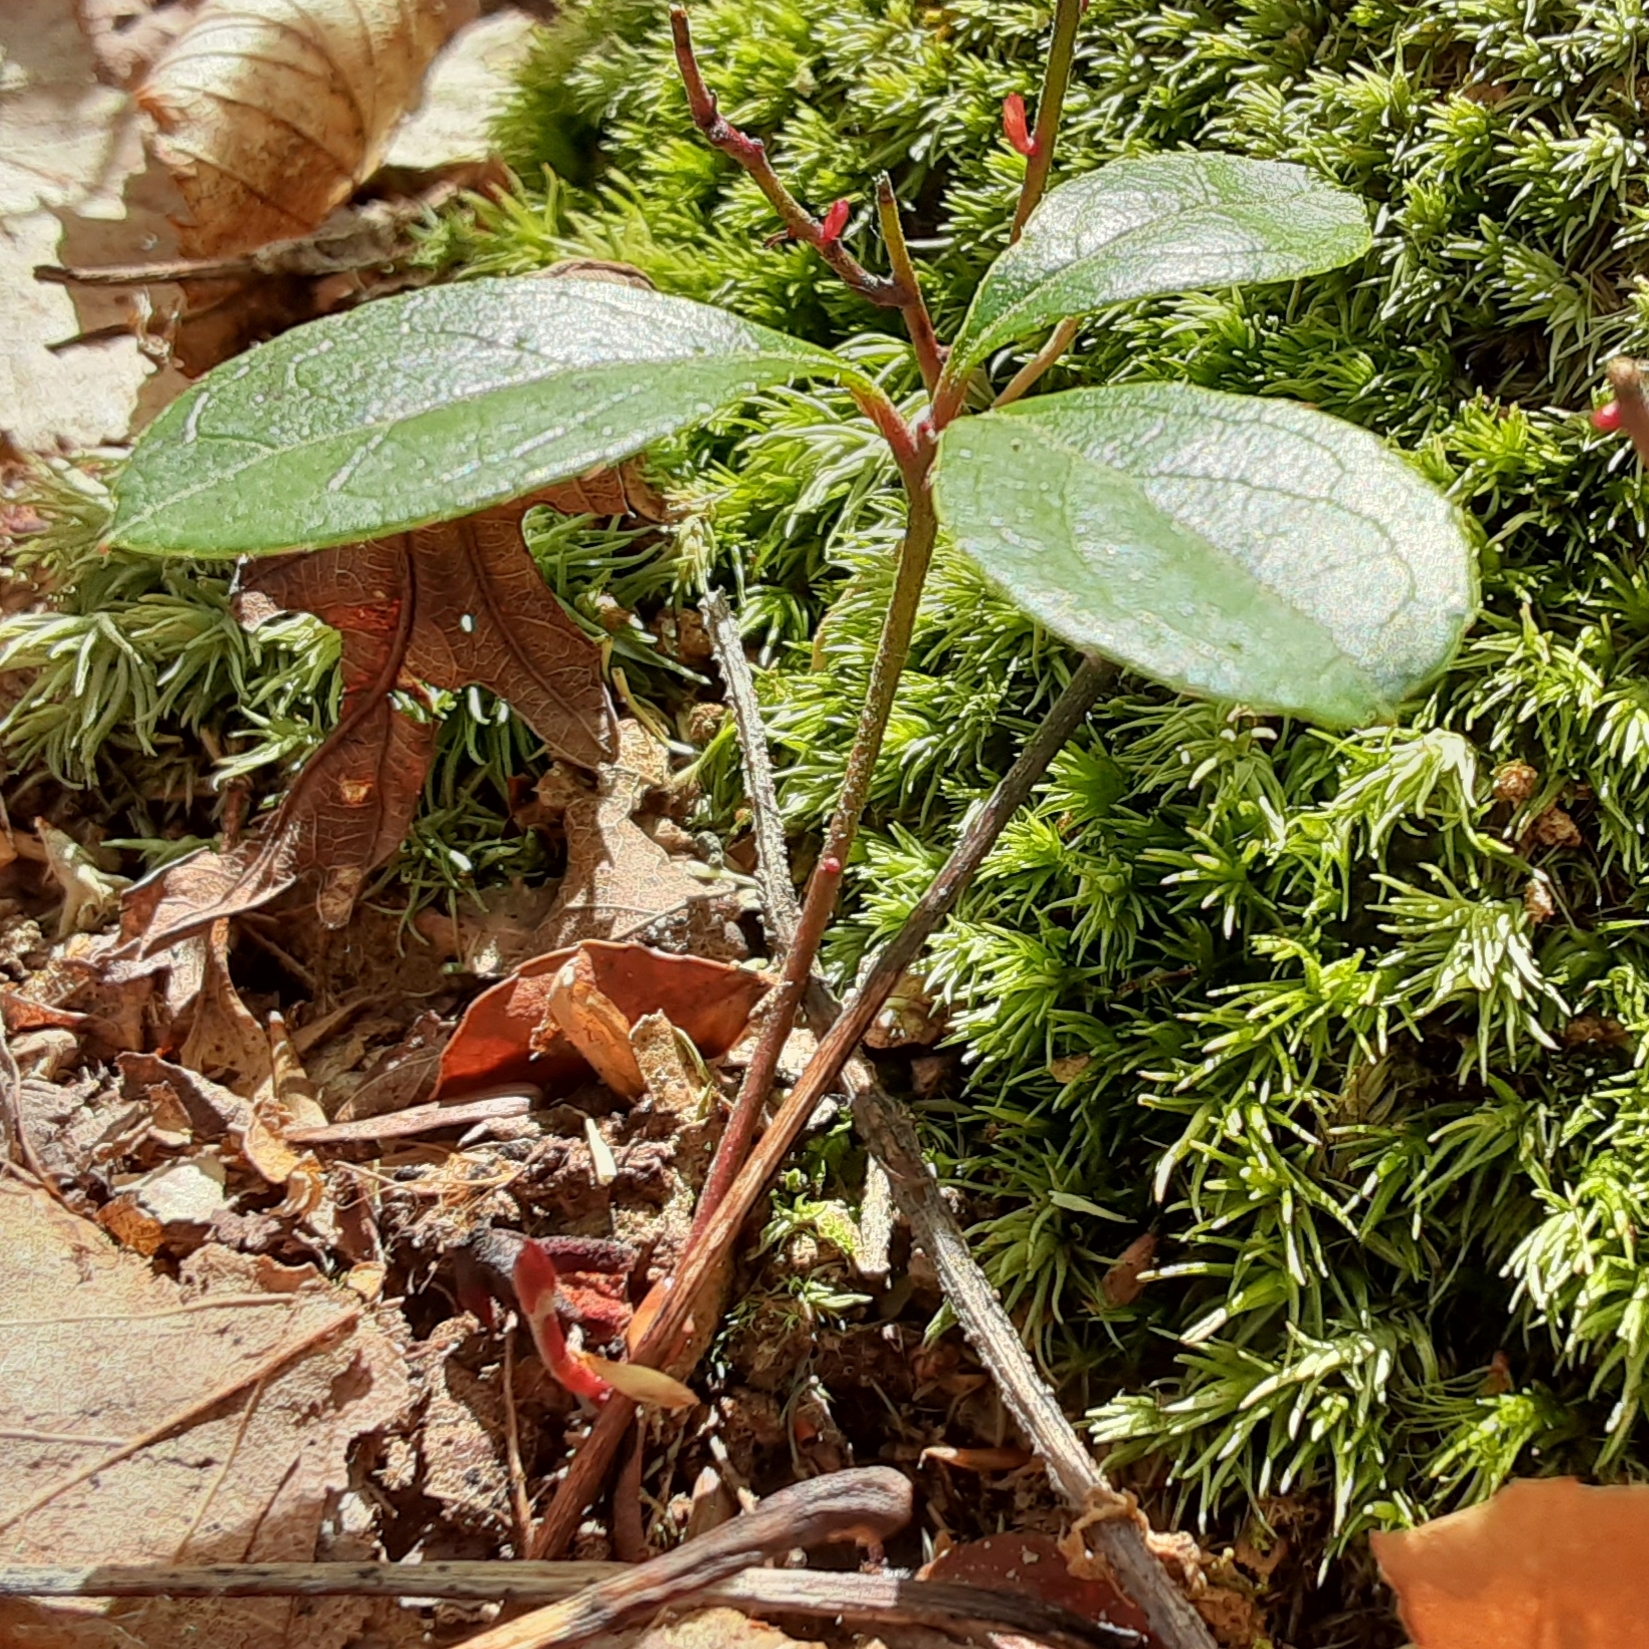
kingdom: Plantae
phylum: Tracheophyta
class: Magnoliopsida
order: Ericales
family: Ericaceae
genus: Gaultheria
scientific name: Gaultheria procumbens
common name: Checkerberry
